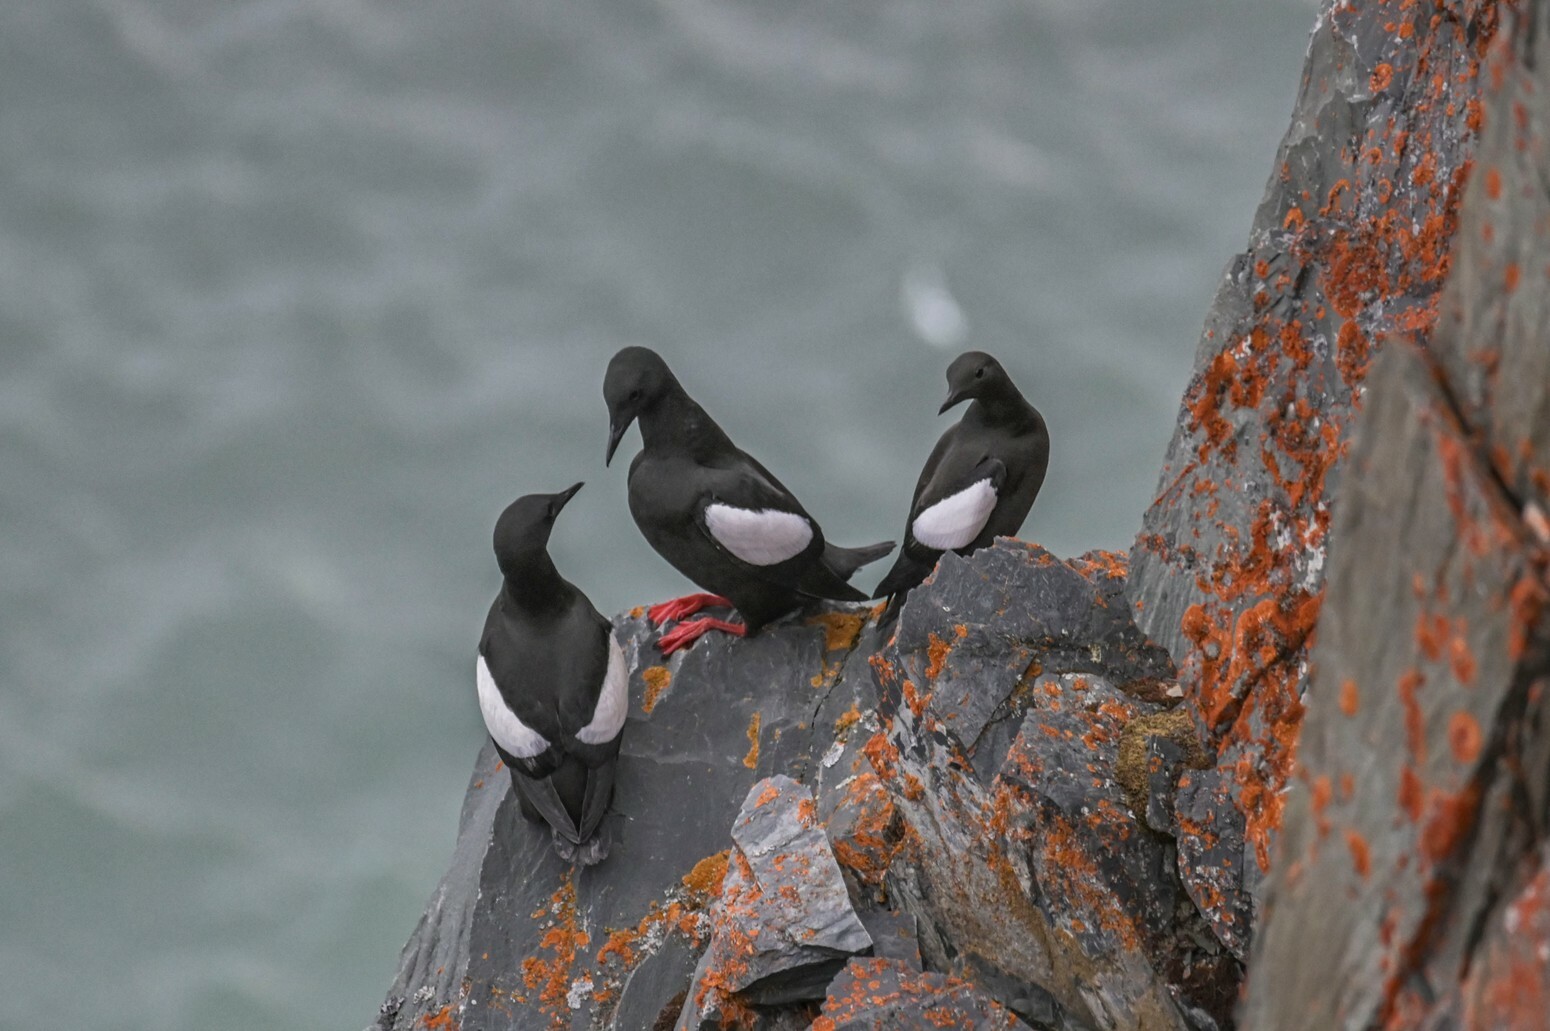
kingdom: Animalia
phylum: Chordata
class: Aves
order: Charadriiformes
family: Alcidae
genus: Cepphus
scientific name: Cepphus grylle
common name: Black guillemot
